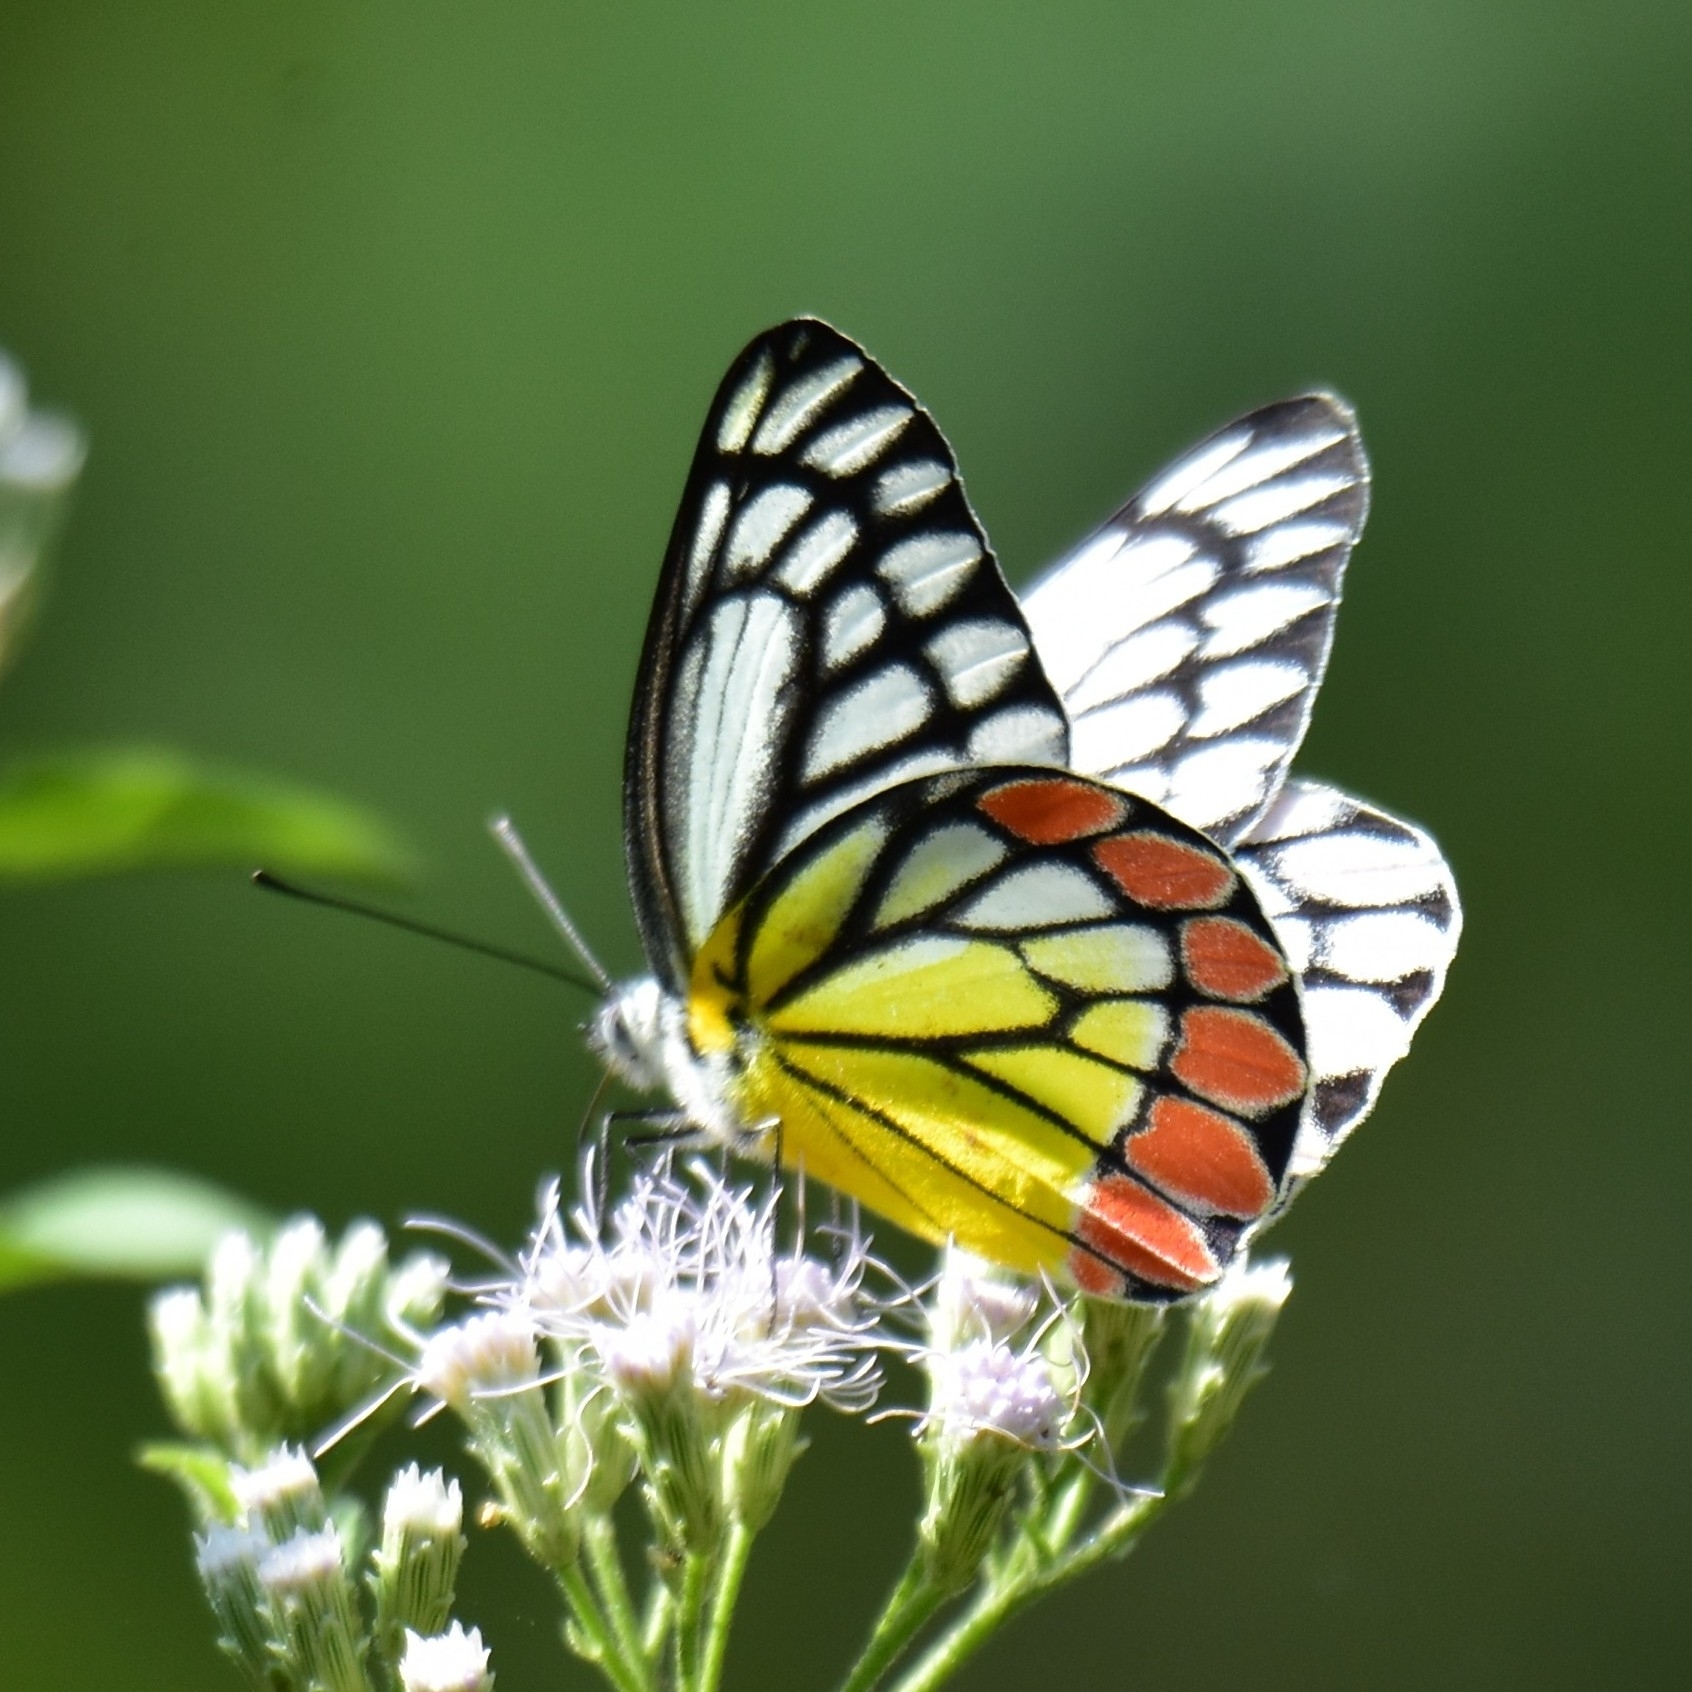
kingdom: Animalia
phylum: Arthropoda
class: Insecta
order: Lepidoptera
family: Pieridae
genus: Delias
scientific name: Delias eucharis
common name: Common jezebel
